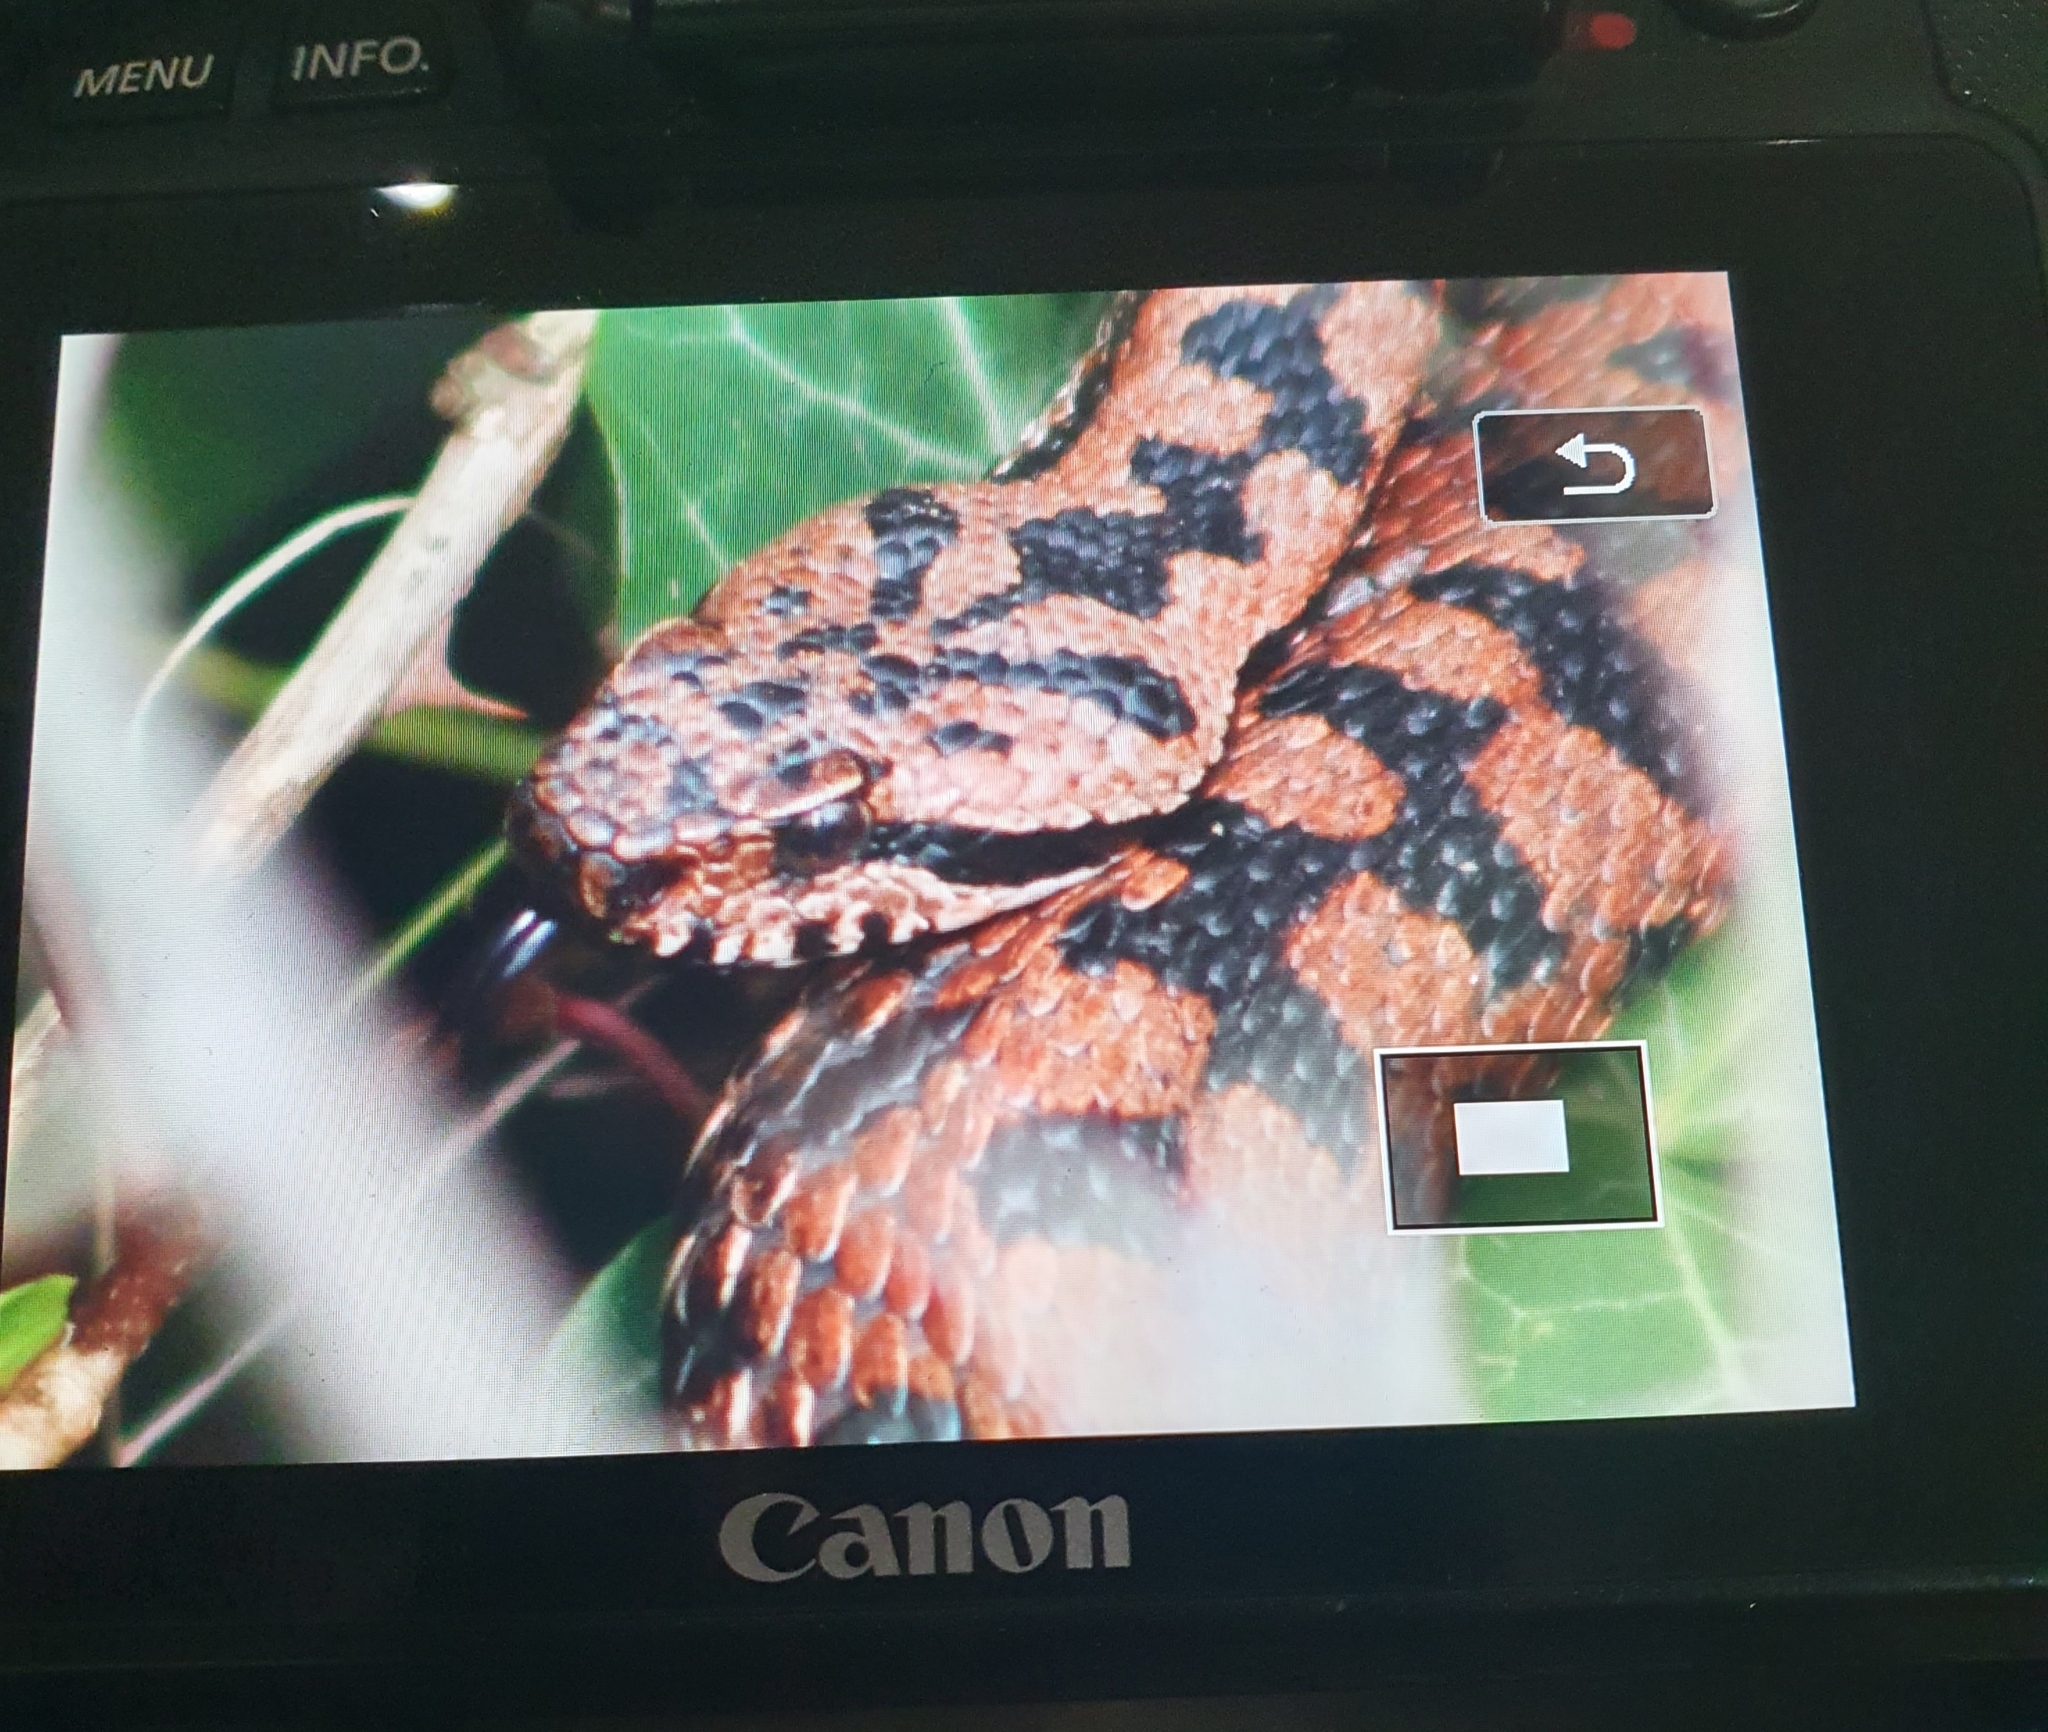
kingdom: Animalia
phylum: Chordata
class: Squamata
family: Viperidae
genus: Vipera
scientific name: Vipera aspis
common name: Asp viper
